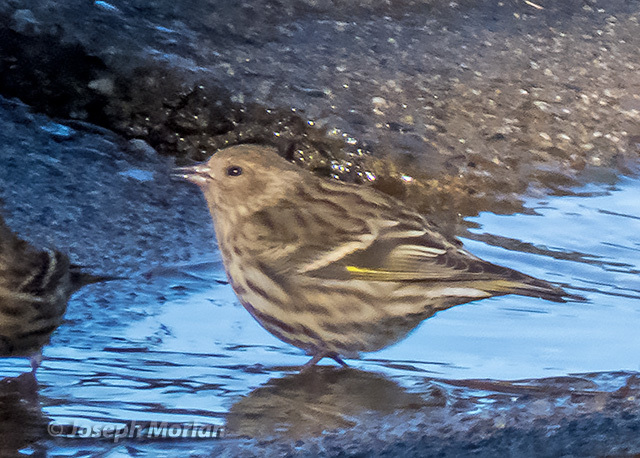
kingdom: Animalia
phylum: Chordata
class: Aves
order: Passeriformes
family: Fringillidae
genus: Spinus
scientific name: Spinus pinus
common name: Pine siskin
